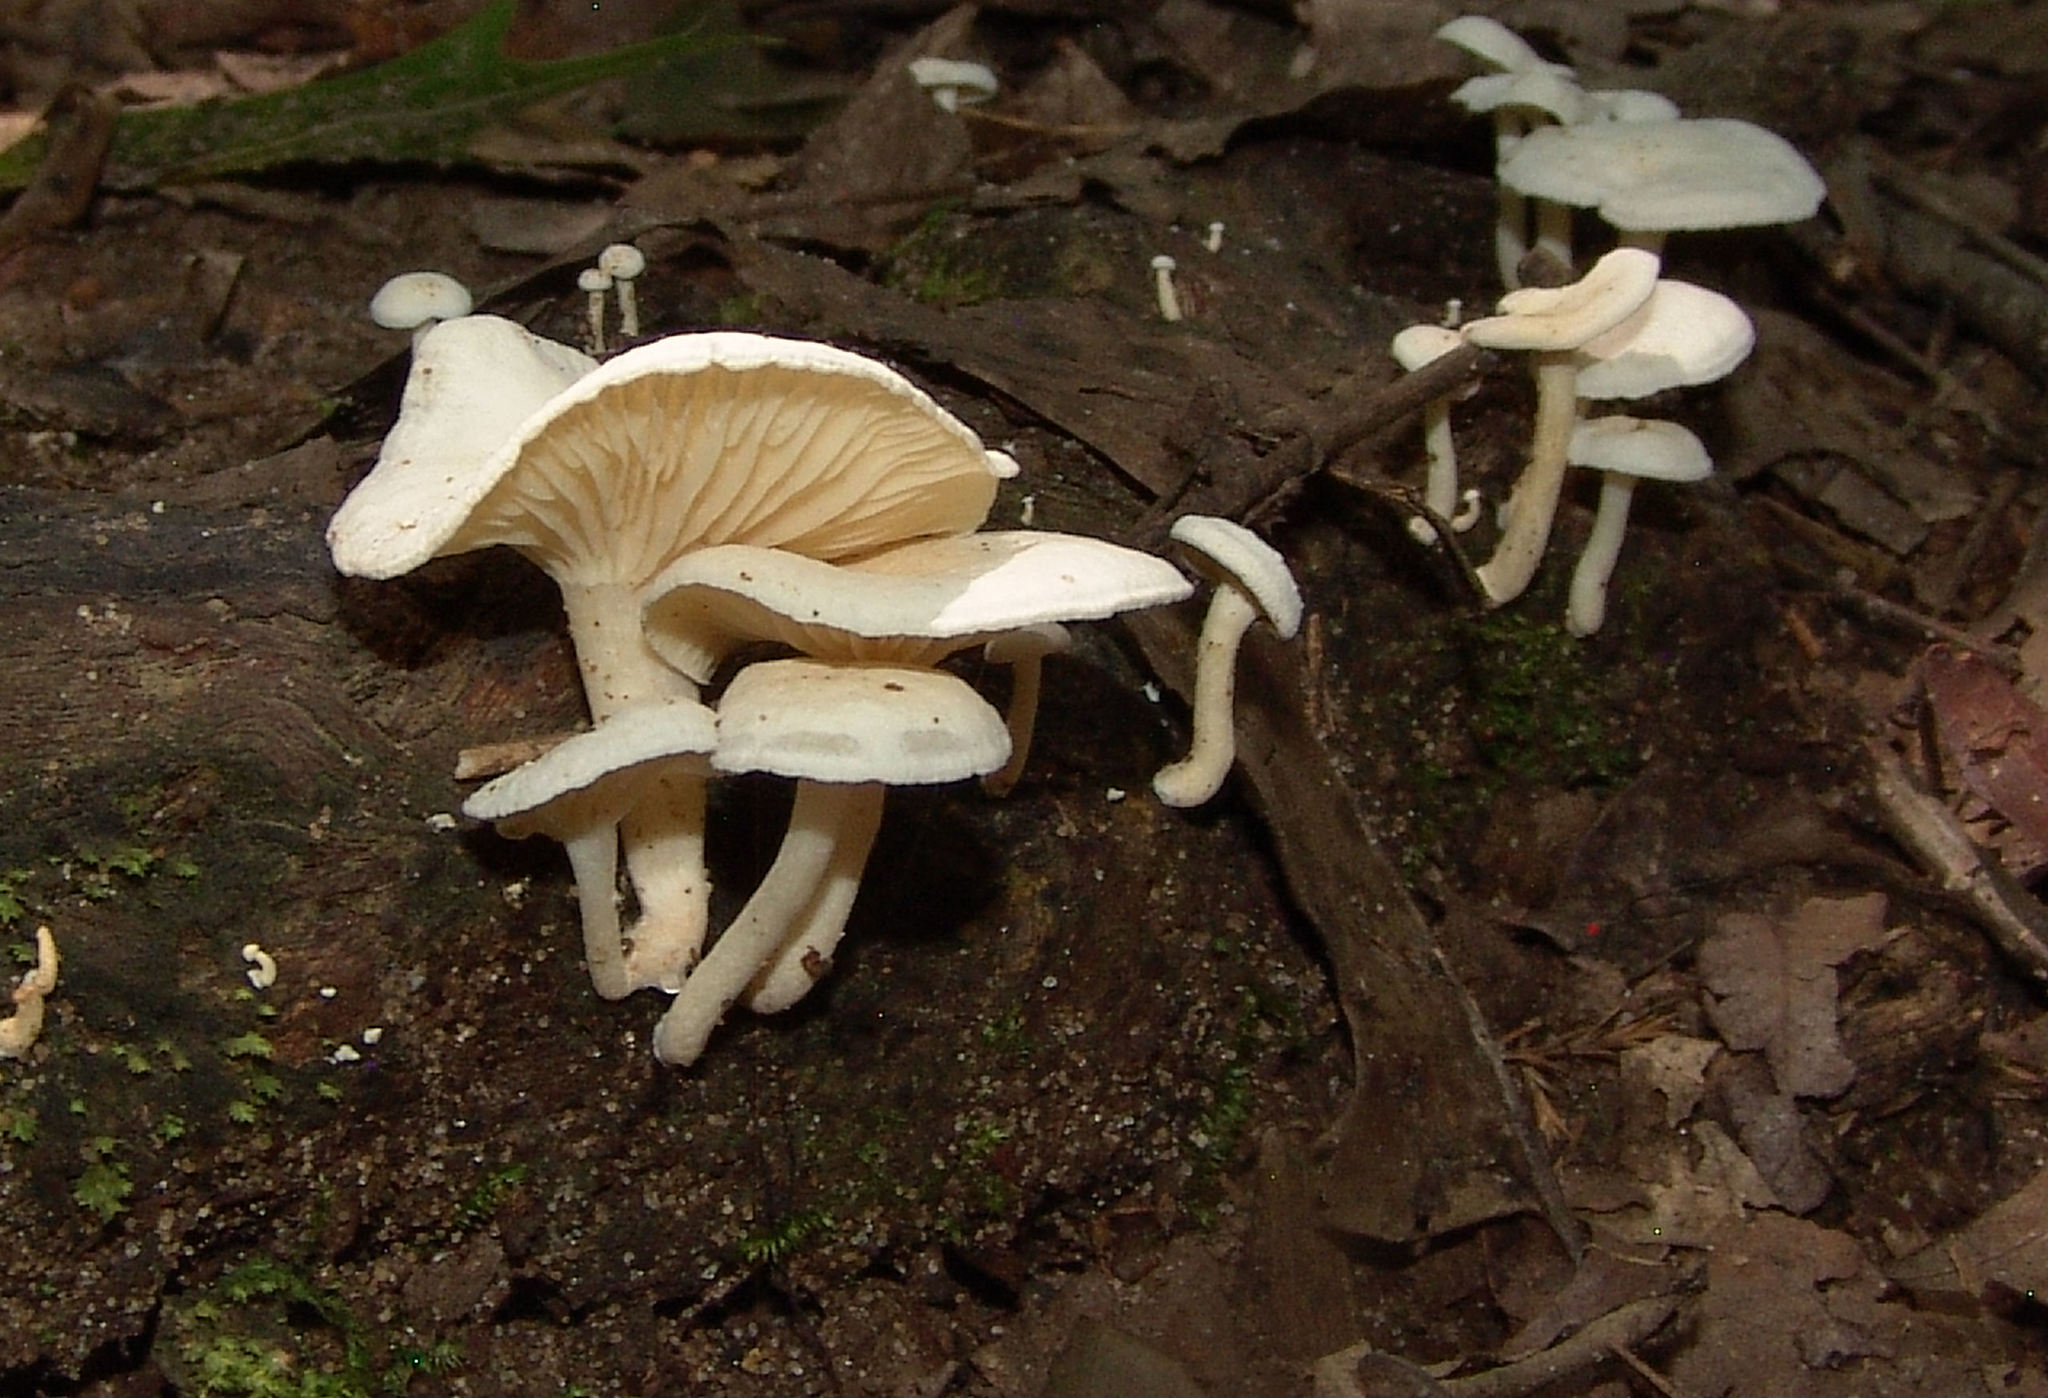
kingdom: Fungi
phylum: Basidiomycota
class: Agaricomycetes
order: Agaricales
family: Tricholomataceae
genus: Clitocybe
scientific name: Clitocybe peralbida
